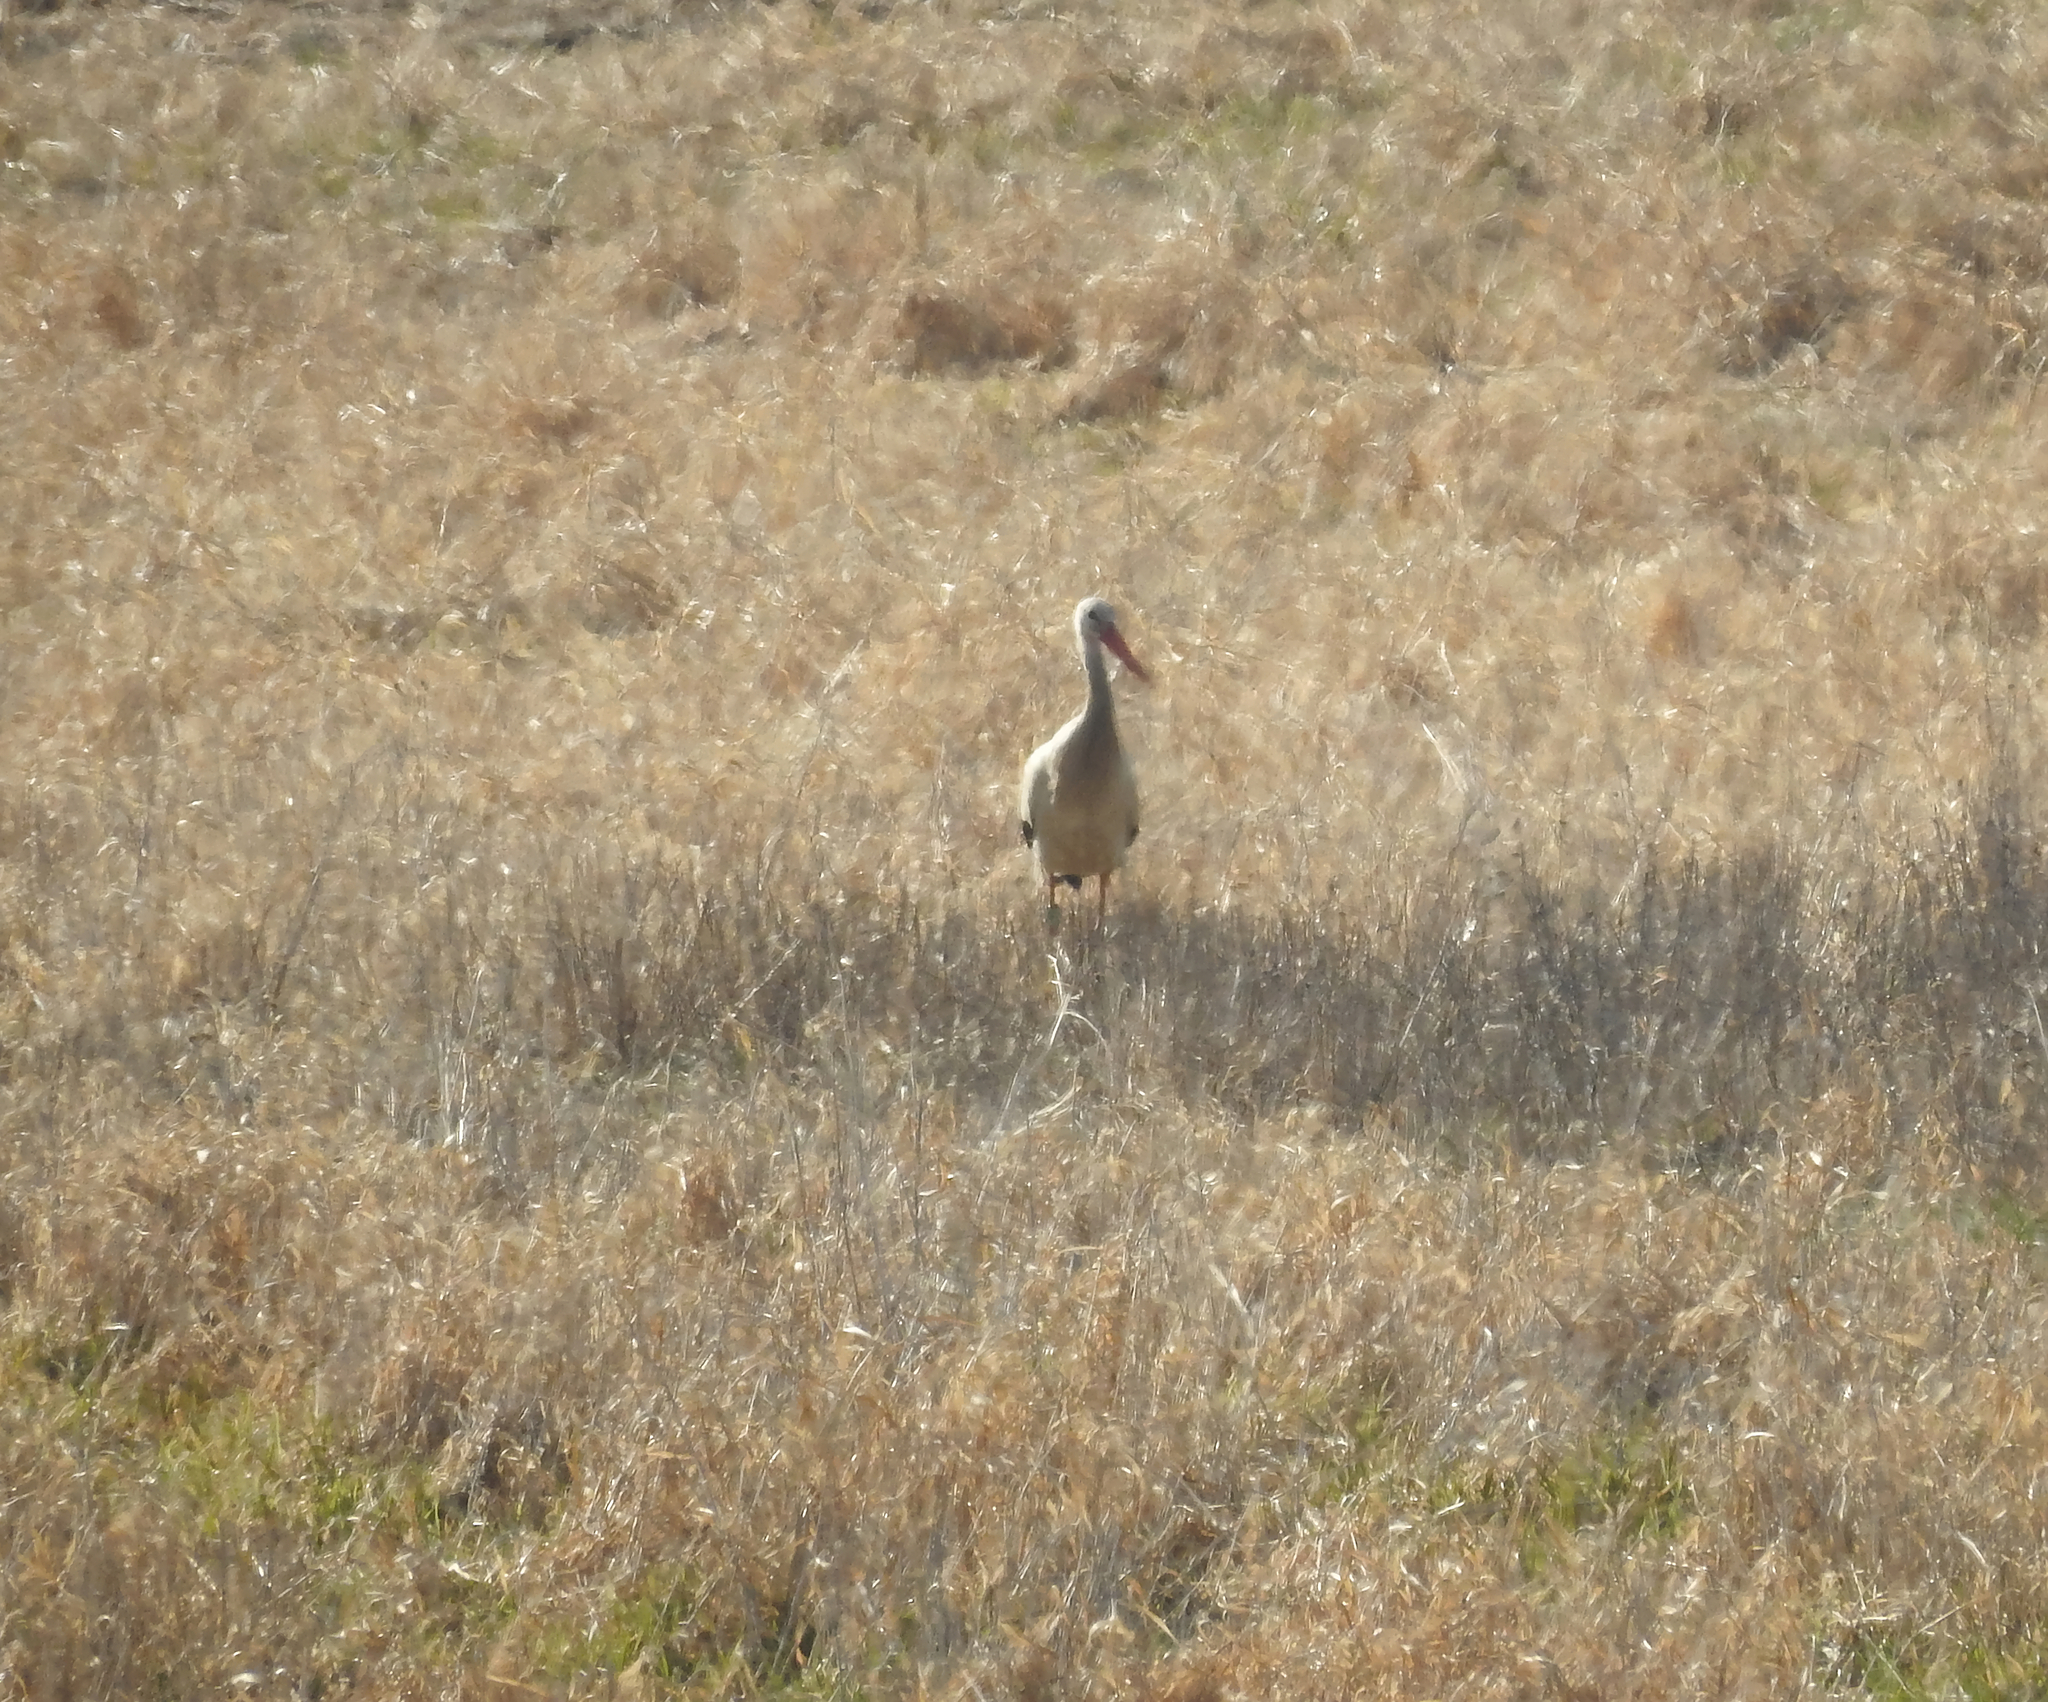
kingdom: Animalia
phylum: Chordata
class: Aves
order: Ciconiiformes
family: Ciconiidae
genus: Ciconia
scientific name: Ciconia ciconia
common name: White stork
